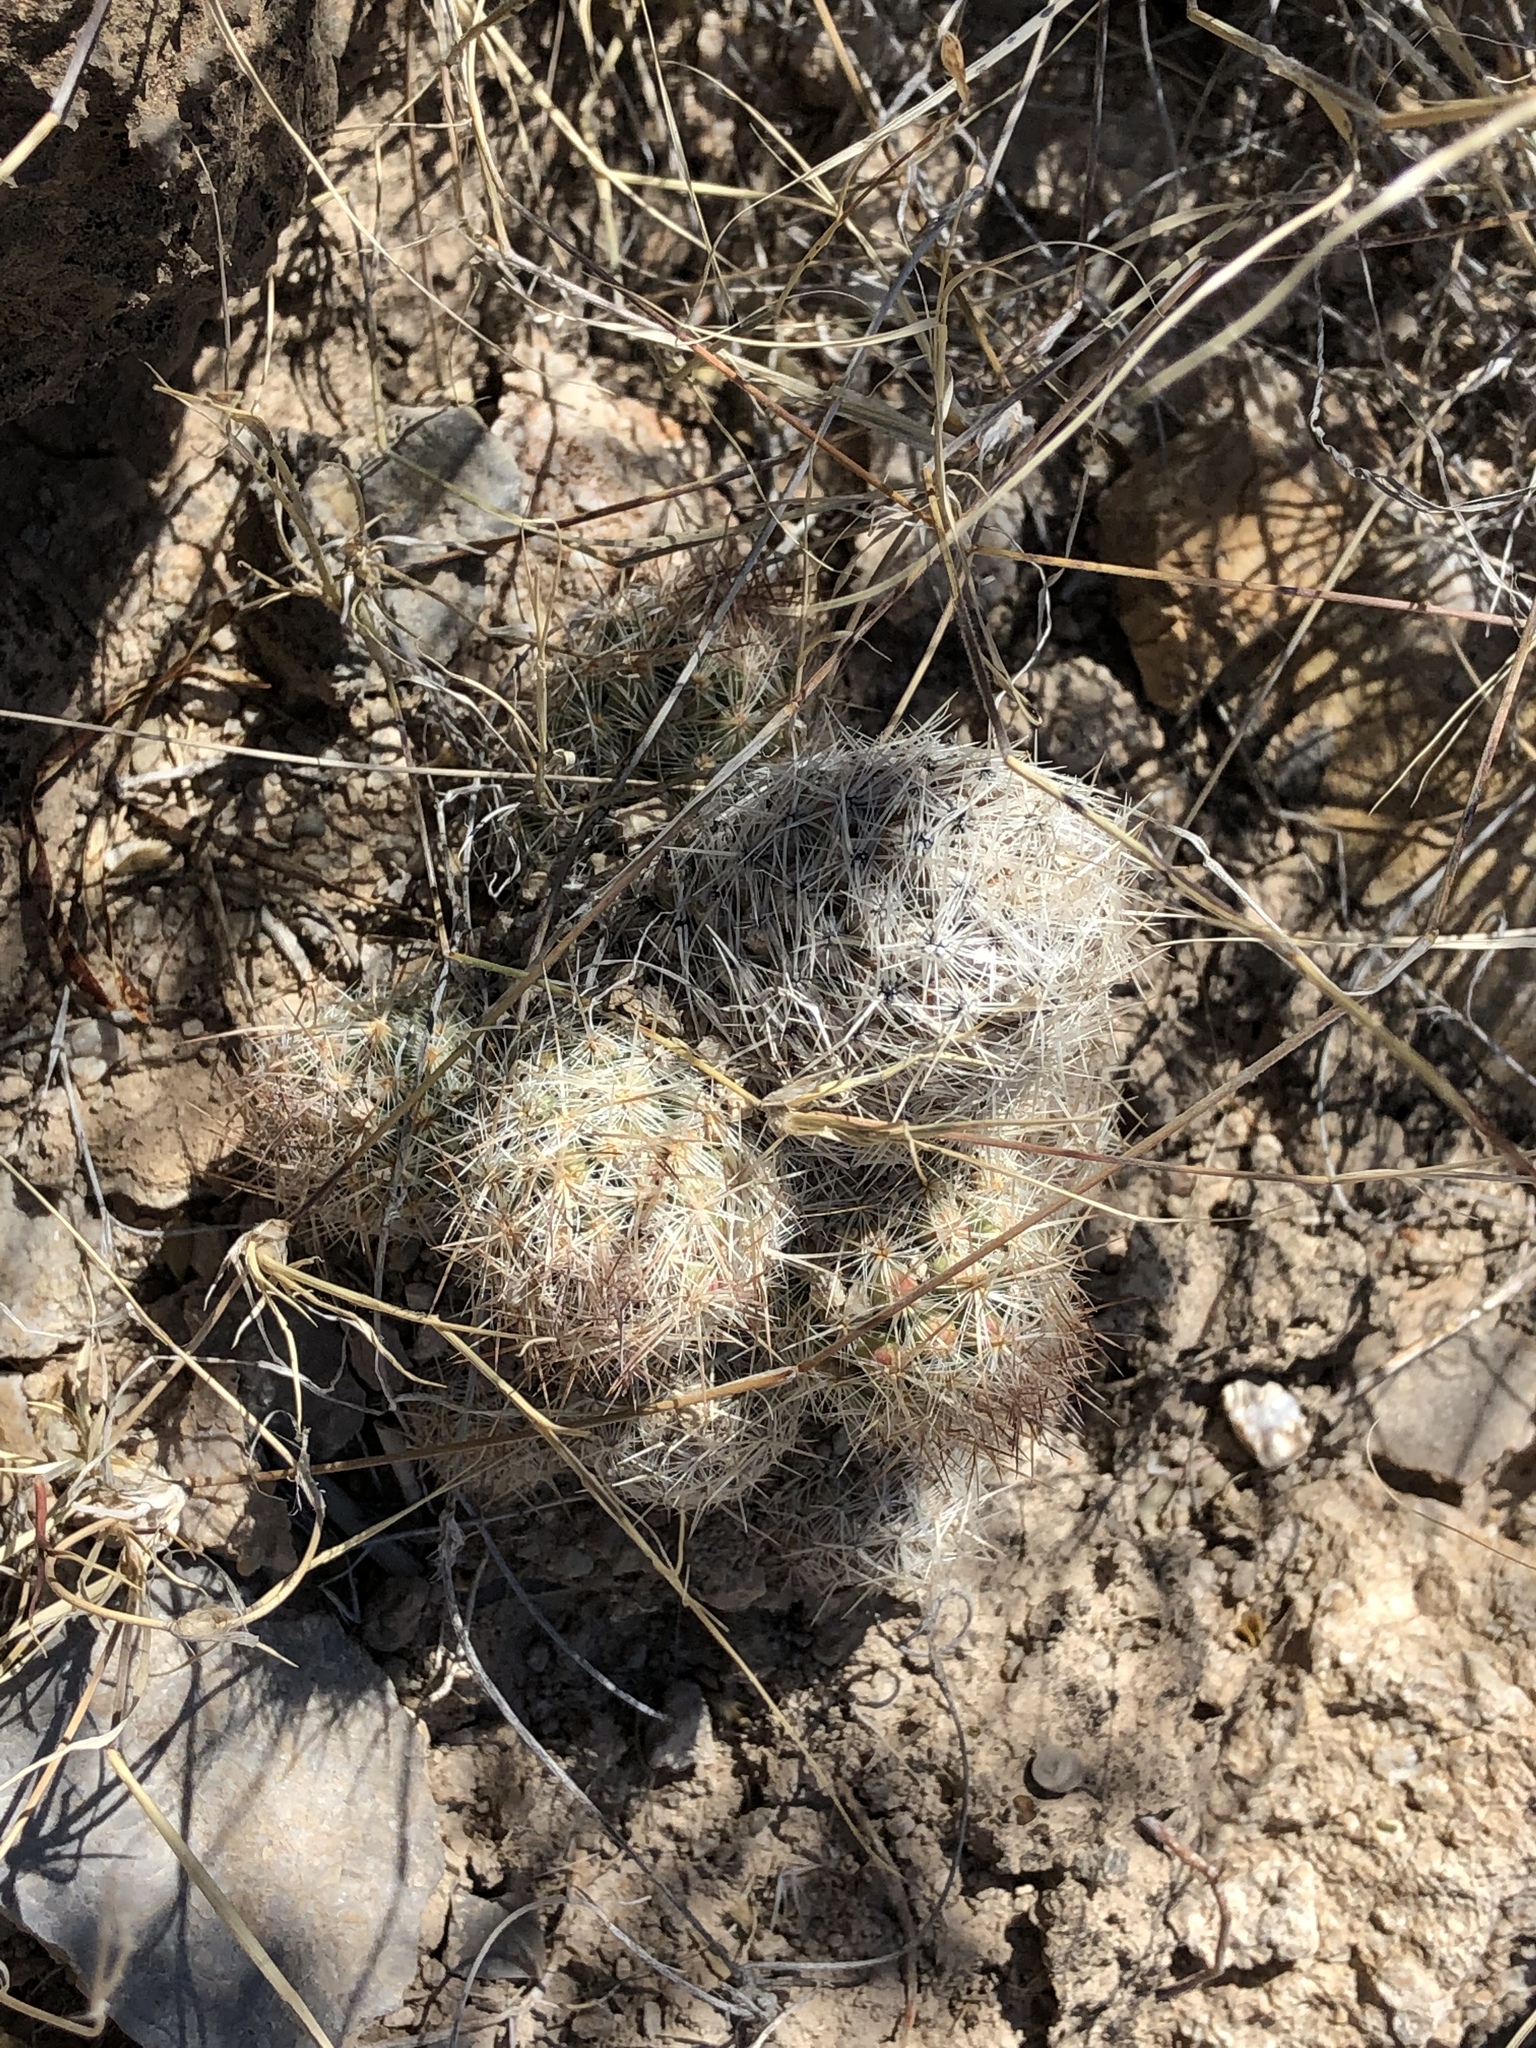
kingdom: Plantae
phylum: Tracheophyta
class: Magnoliopsida
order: Caryophyllales
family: Cactaceae
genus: Pelecyphora
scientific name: Pelecyphora tuberculosa
